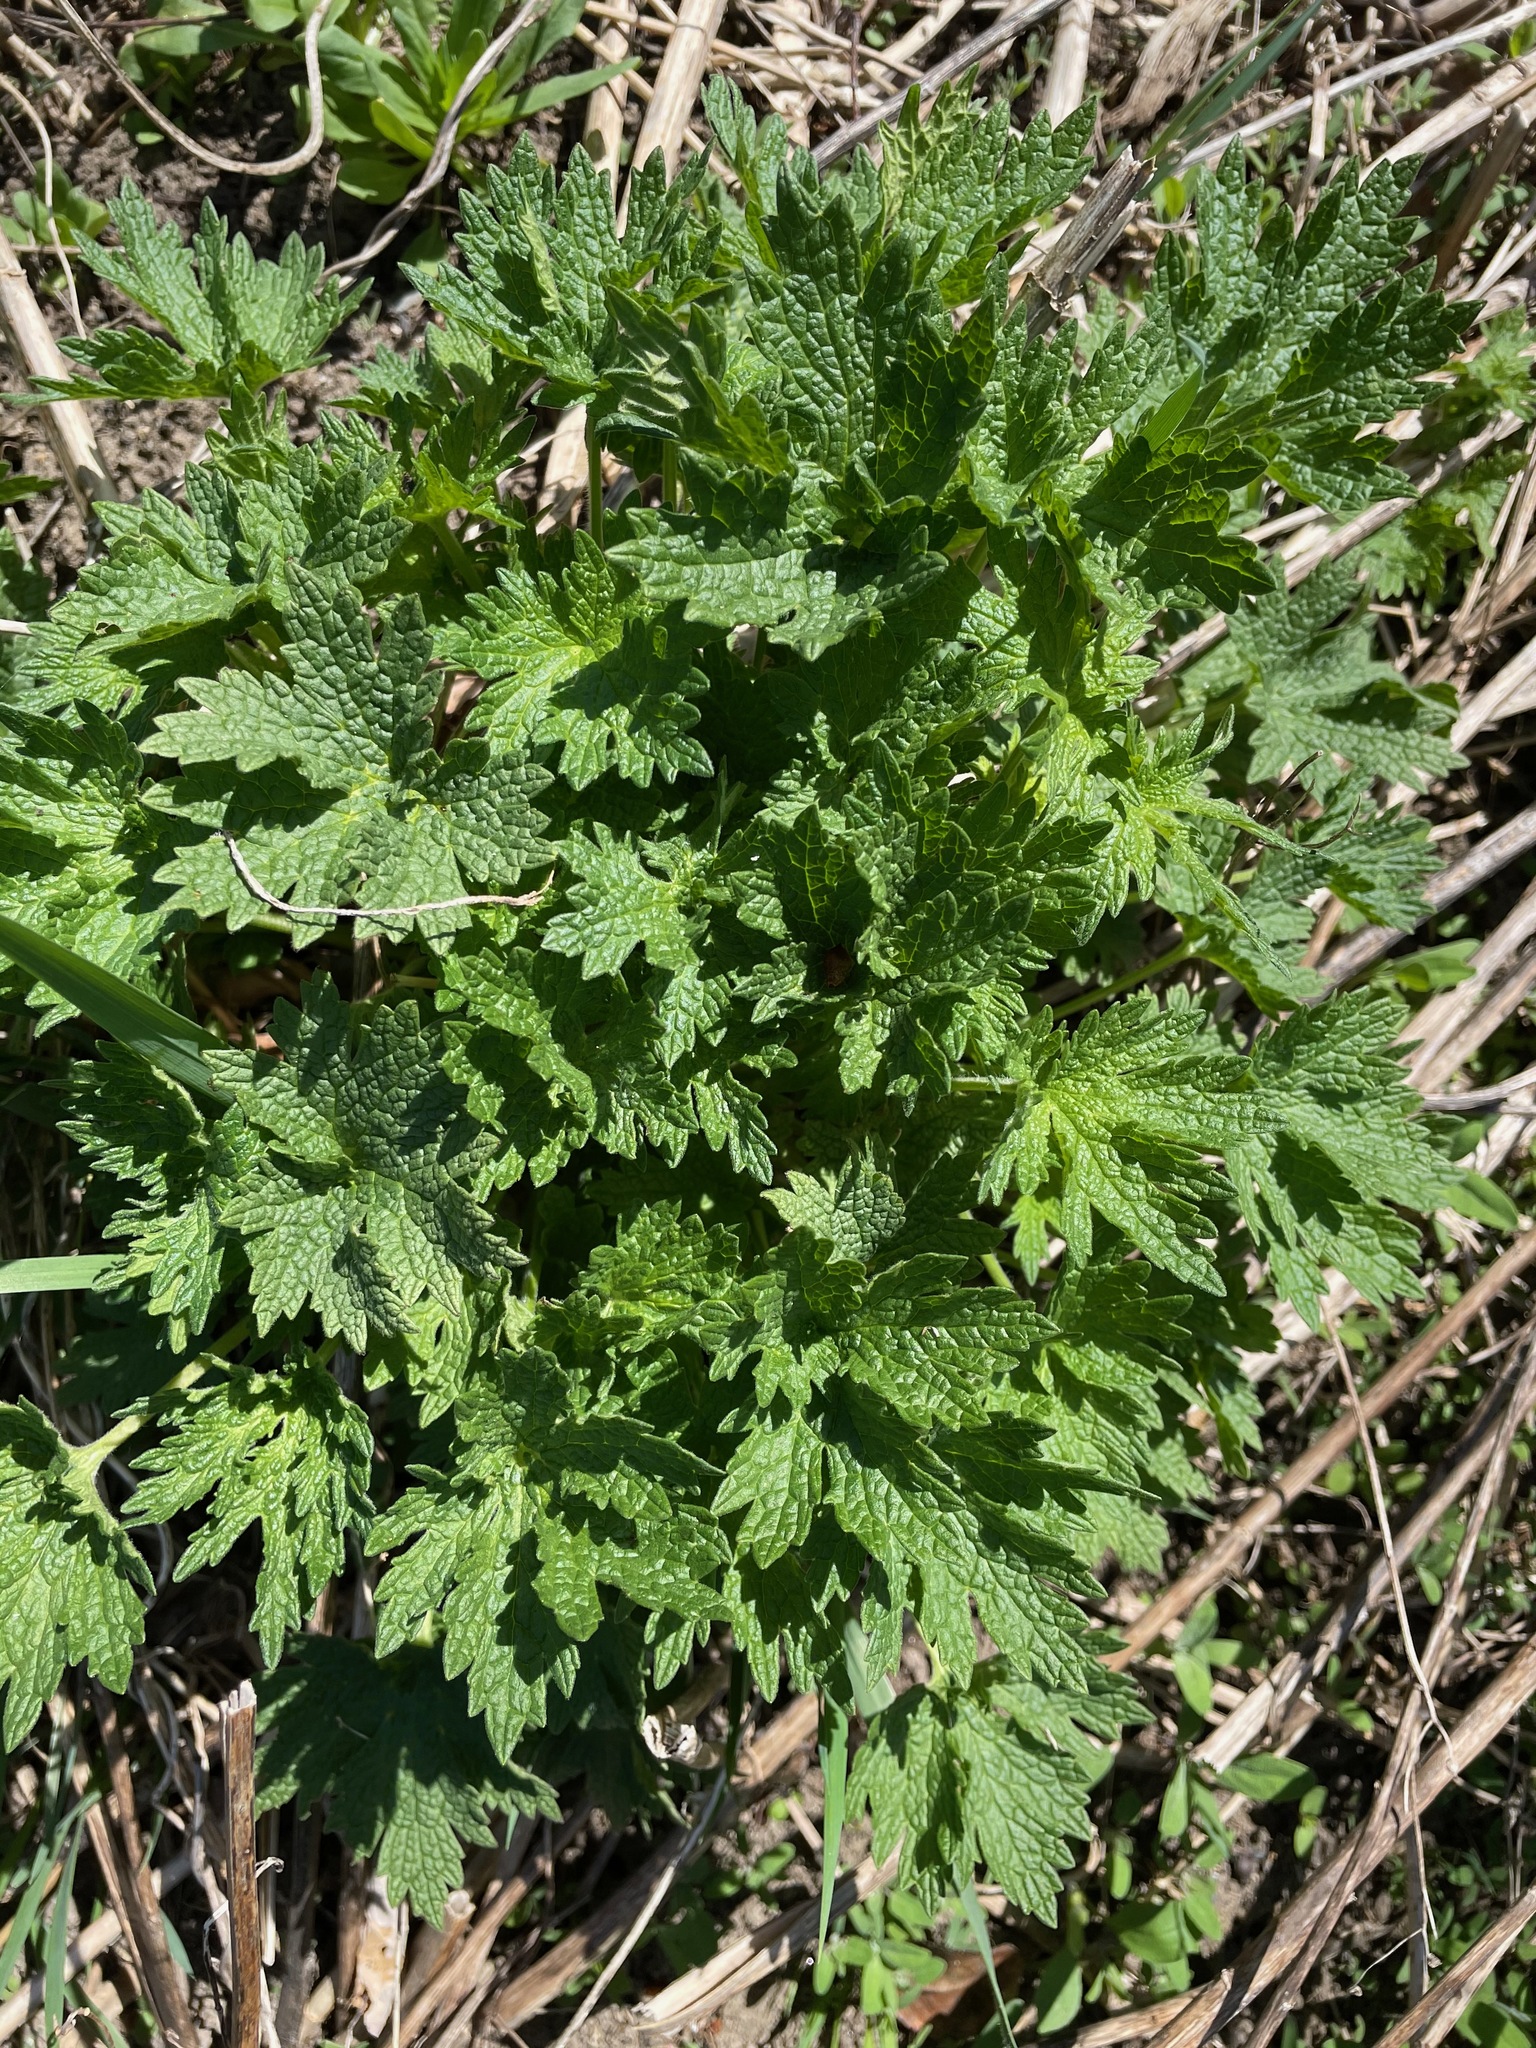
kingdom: Plantae
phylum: Tracheophyta
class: Magnoliopsida
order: Lamiales
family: Lamiaceae
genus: Leonurus
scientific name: Leonurus cardiaca
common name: Motherwort
